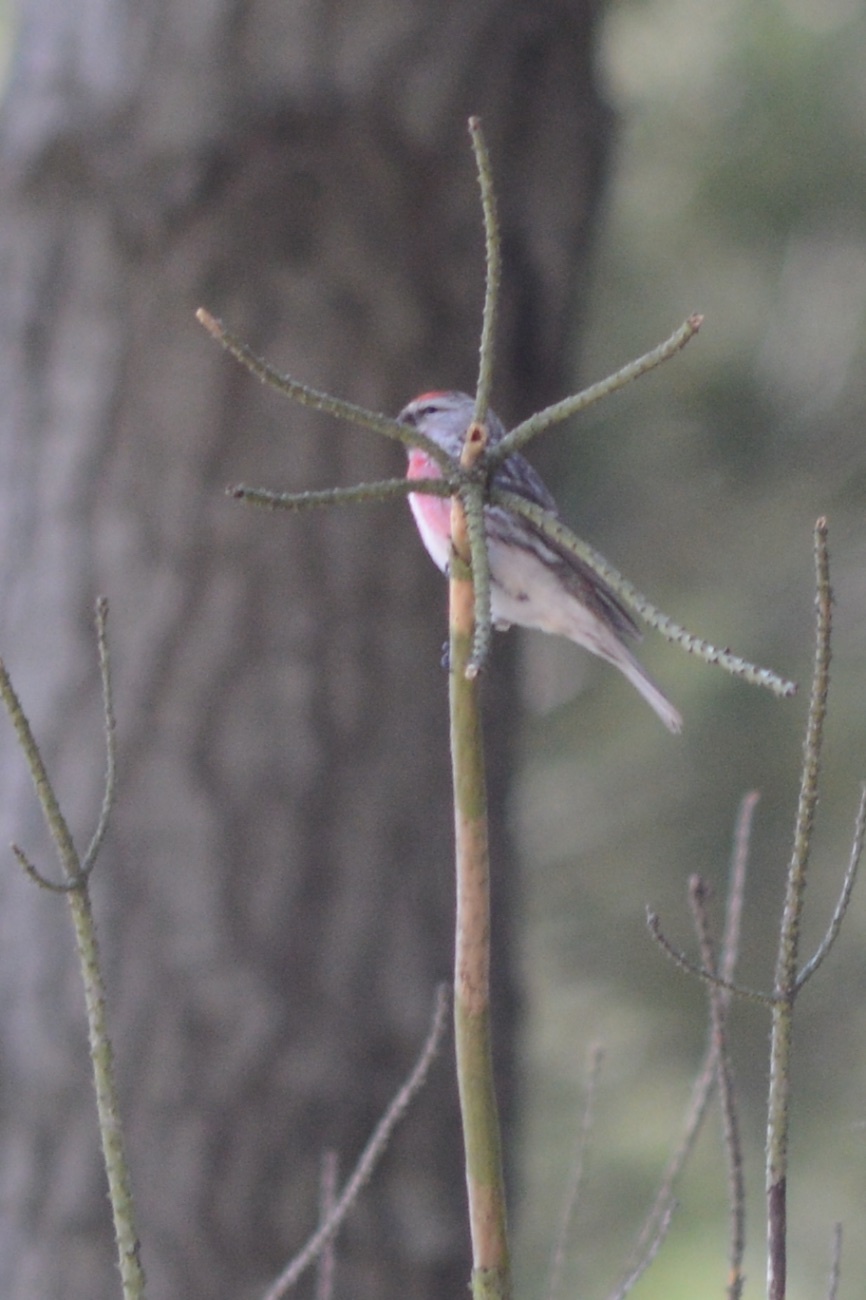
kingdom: Animalia
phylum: Chordata
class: Aves
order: Passeriformes
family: Fringillidae
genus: Acanthis
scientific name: Acanthis flammea
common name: Common redpoll
